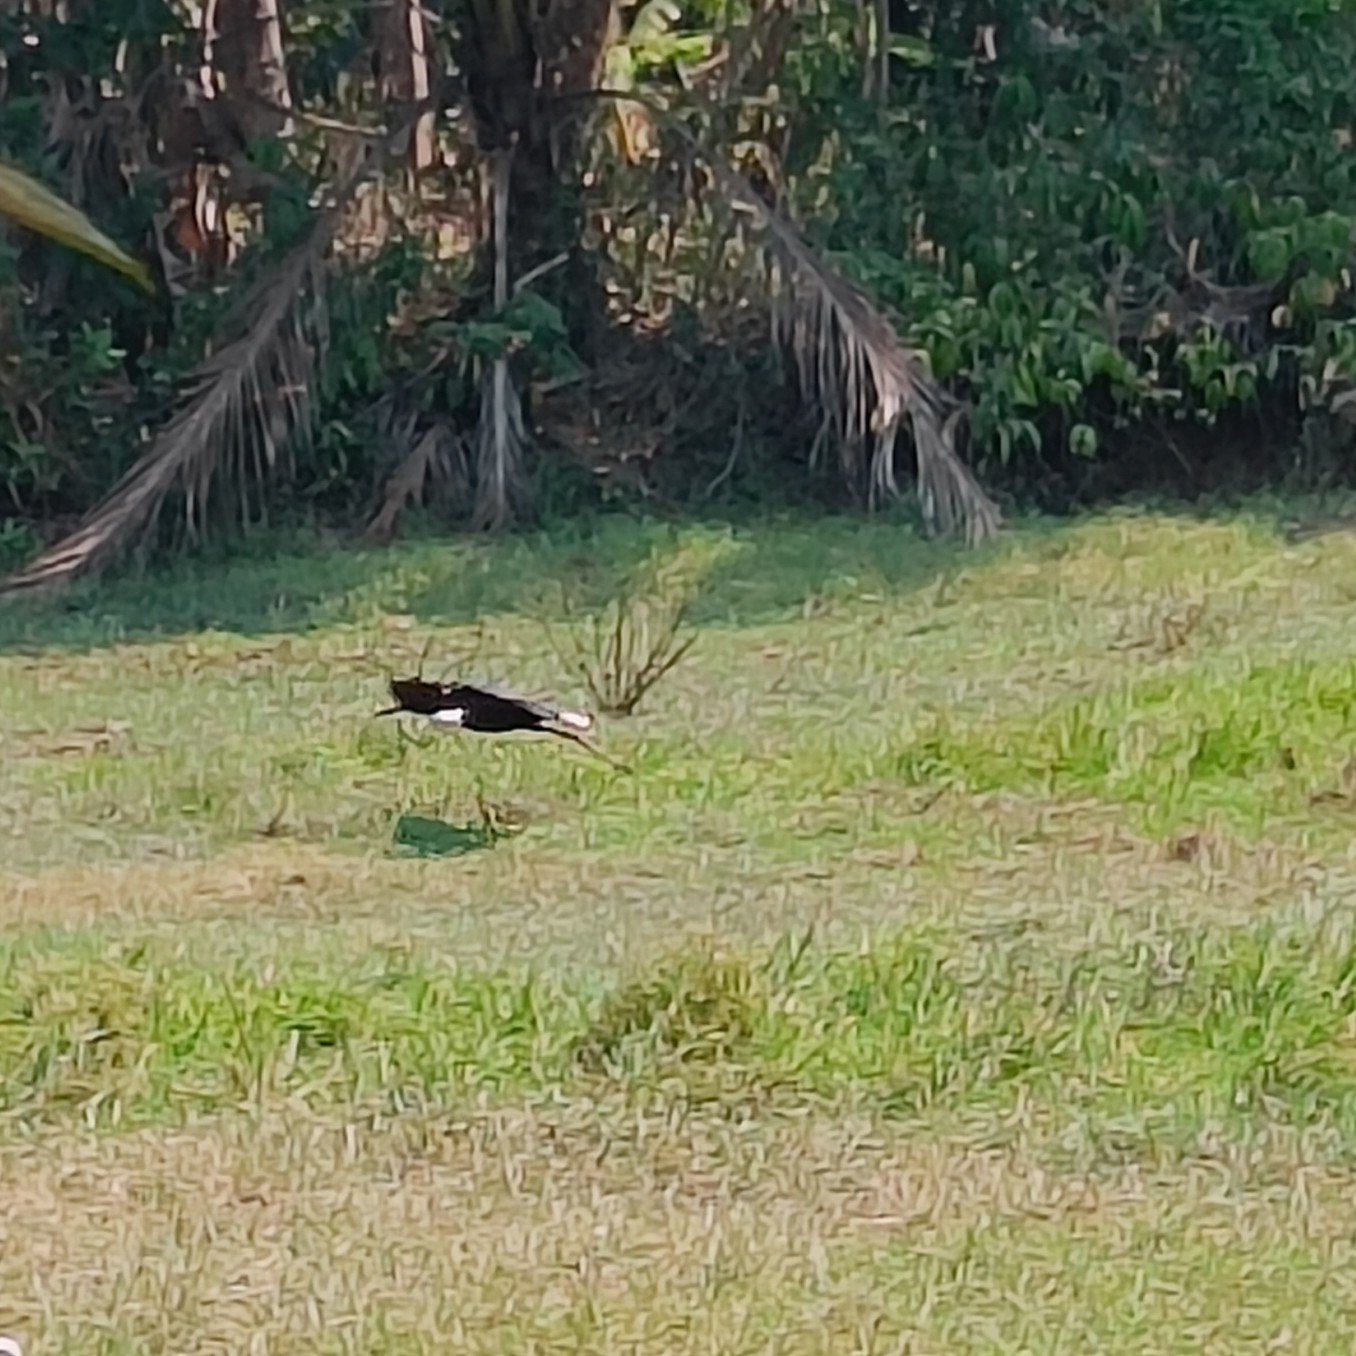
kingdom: Animalia
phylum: Chordata
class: Aves
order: Ciconiiformes
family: Ciconiidae
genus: Ciconia
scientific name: Ciconia episcopus
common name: Woolly-necked stork
